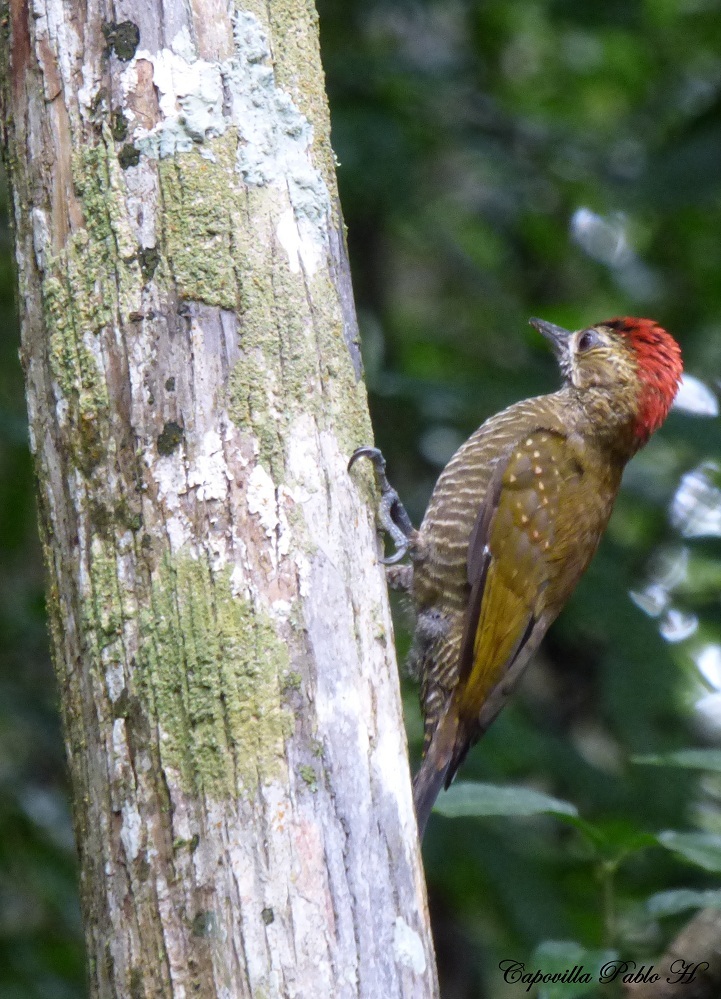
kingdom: Animalia
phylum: Chordata
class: Aves
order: Piciformes
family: Picidae
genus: Veniliornis
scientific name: Veniliornis frontalis
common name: Dot-fronted woodpecker
